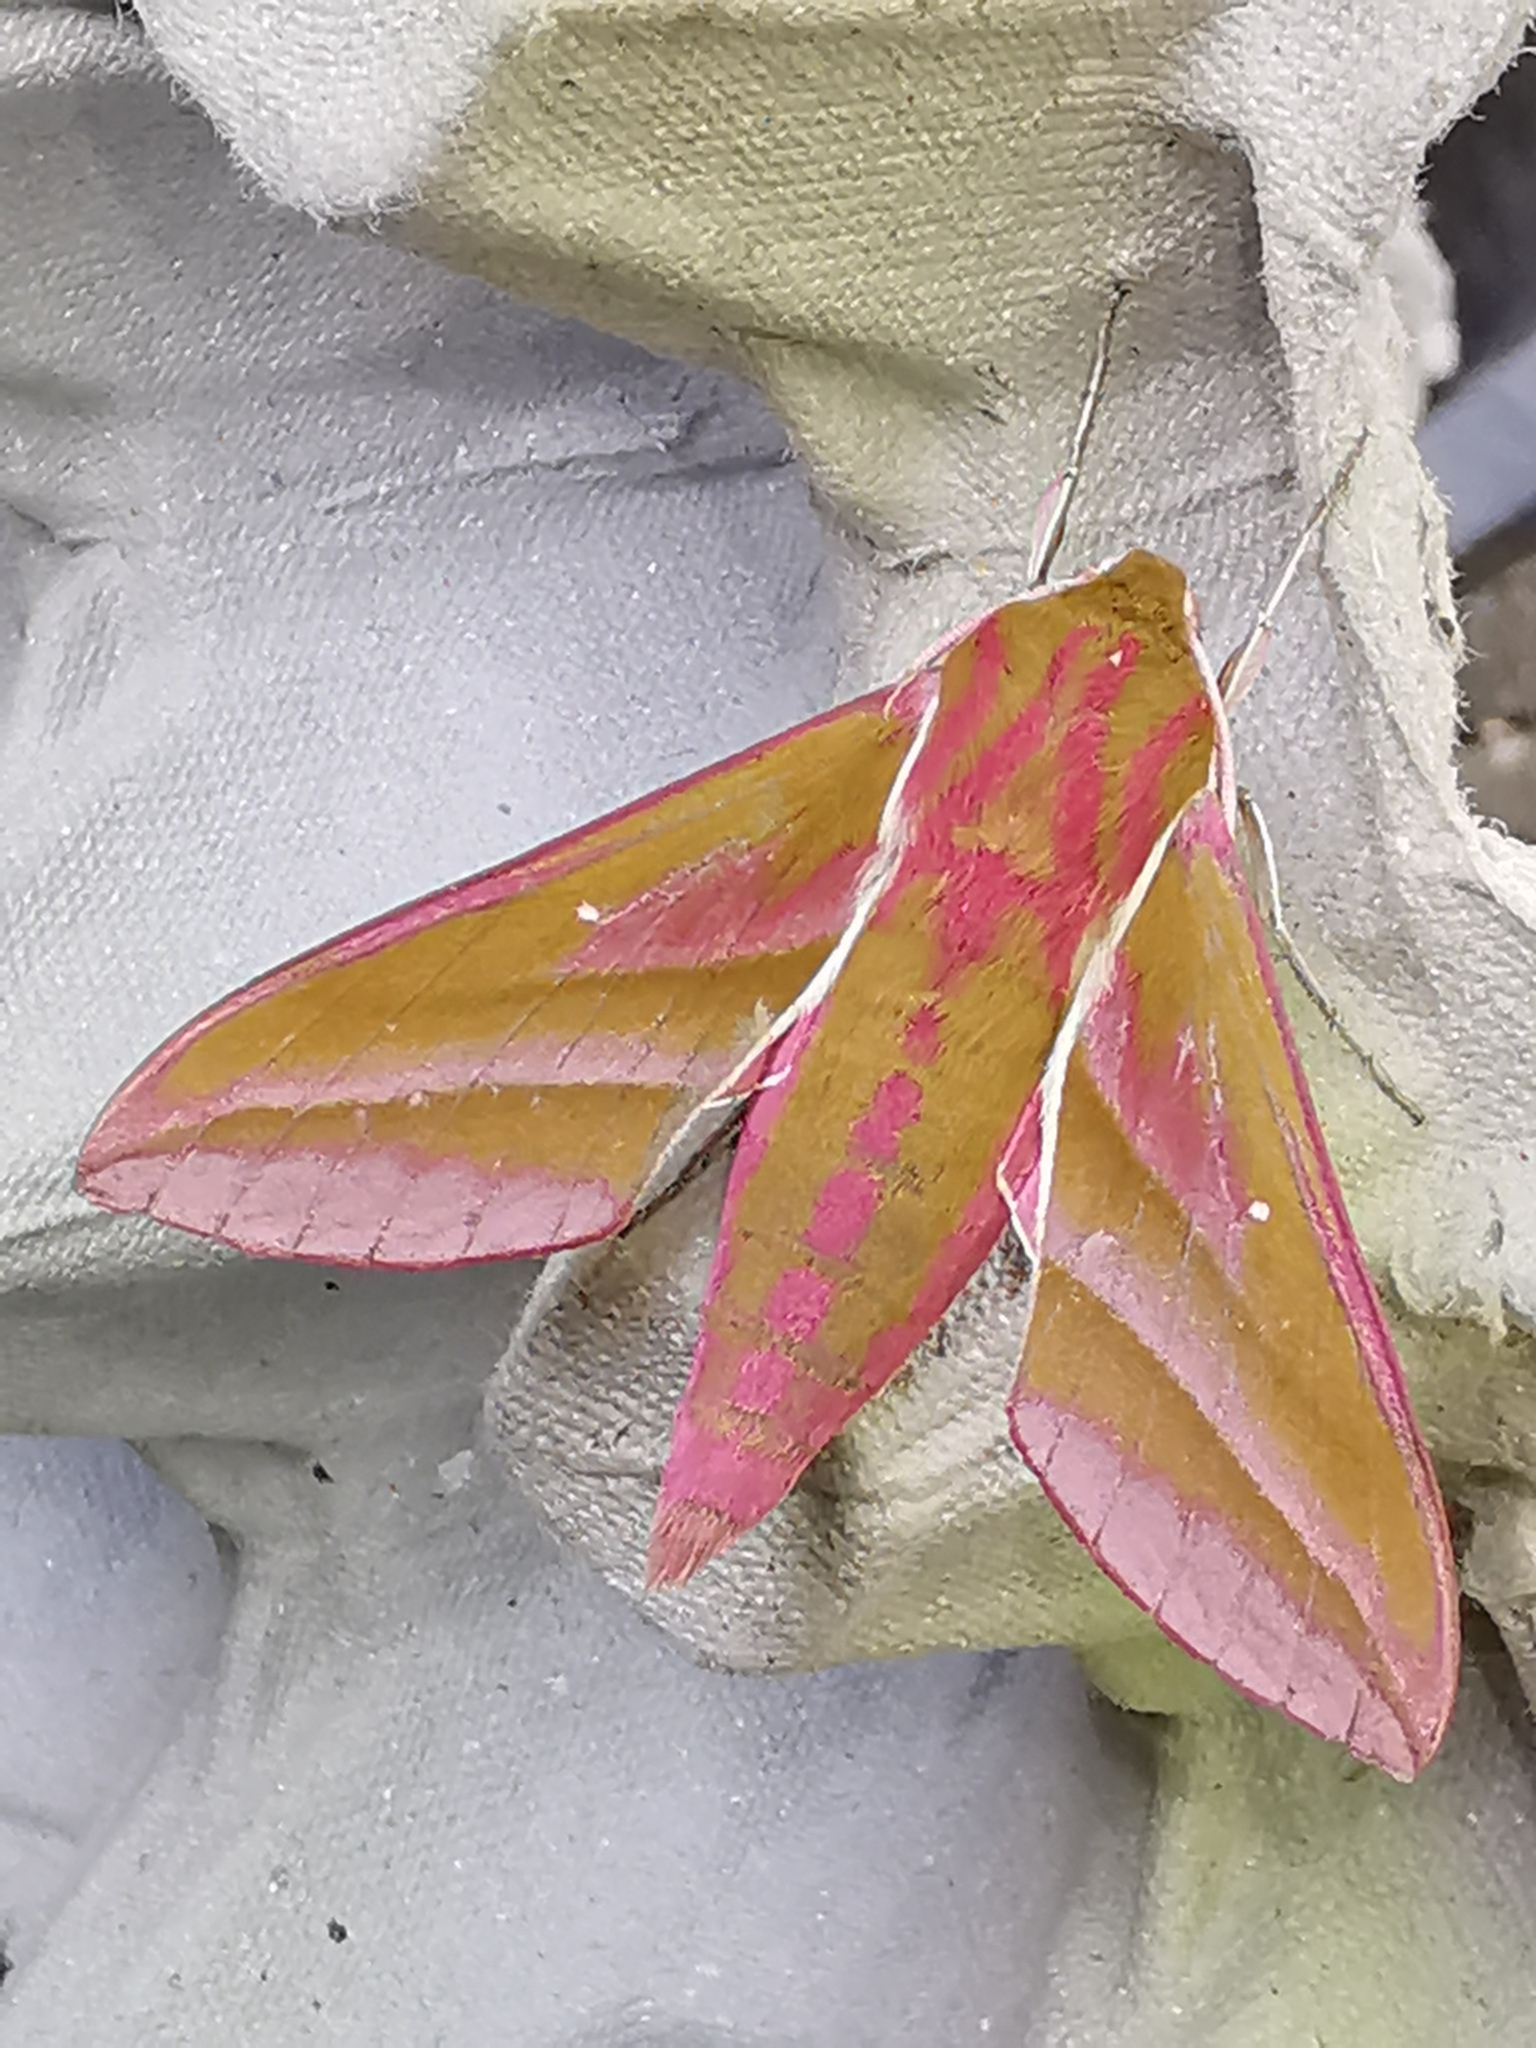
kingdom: Animalia
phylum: Arthropoda
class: Insecta
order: Lepidoptera
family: Sphingidae
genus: Deilephila
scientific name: Deilephila elpenor
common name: Elephant hawk-moth
